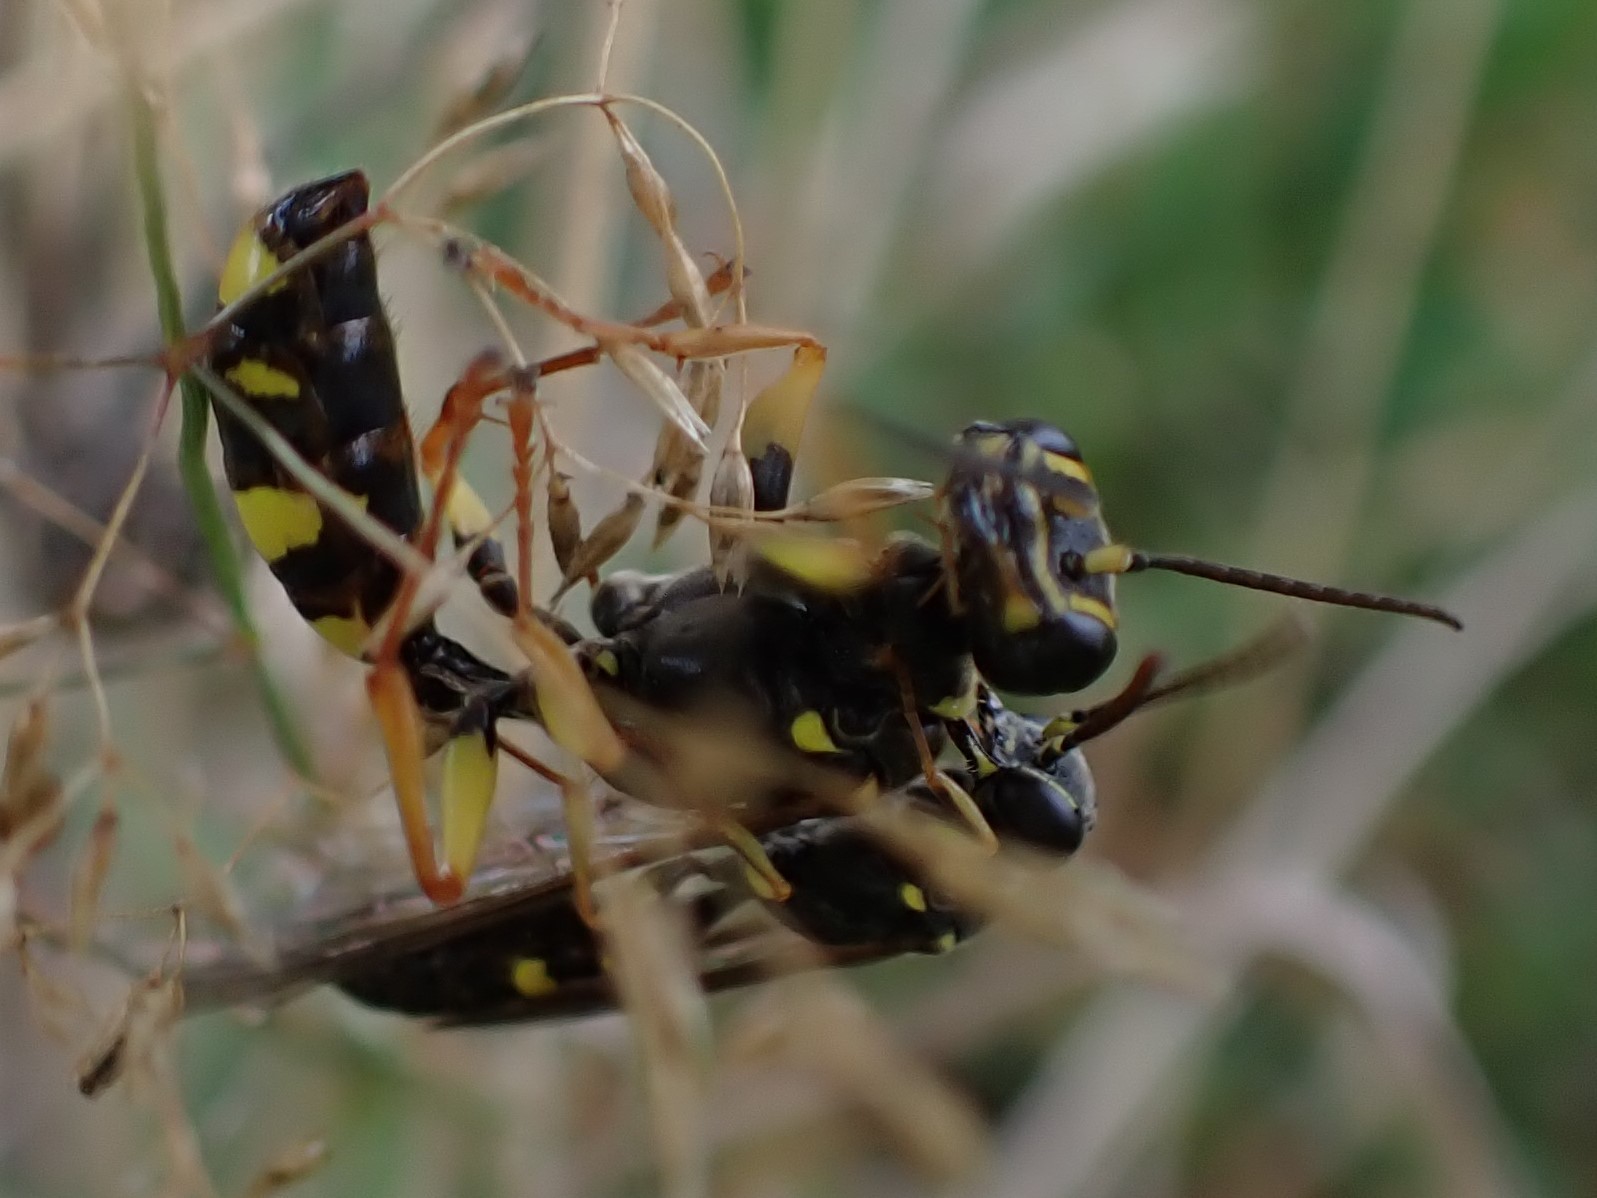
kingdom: Animalia
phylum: Arthropoda
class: Insecta
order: Hymenoptera
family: Crabronidae
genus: Mellinus
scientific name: Mellinus arvensis
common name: Field digger wasp
